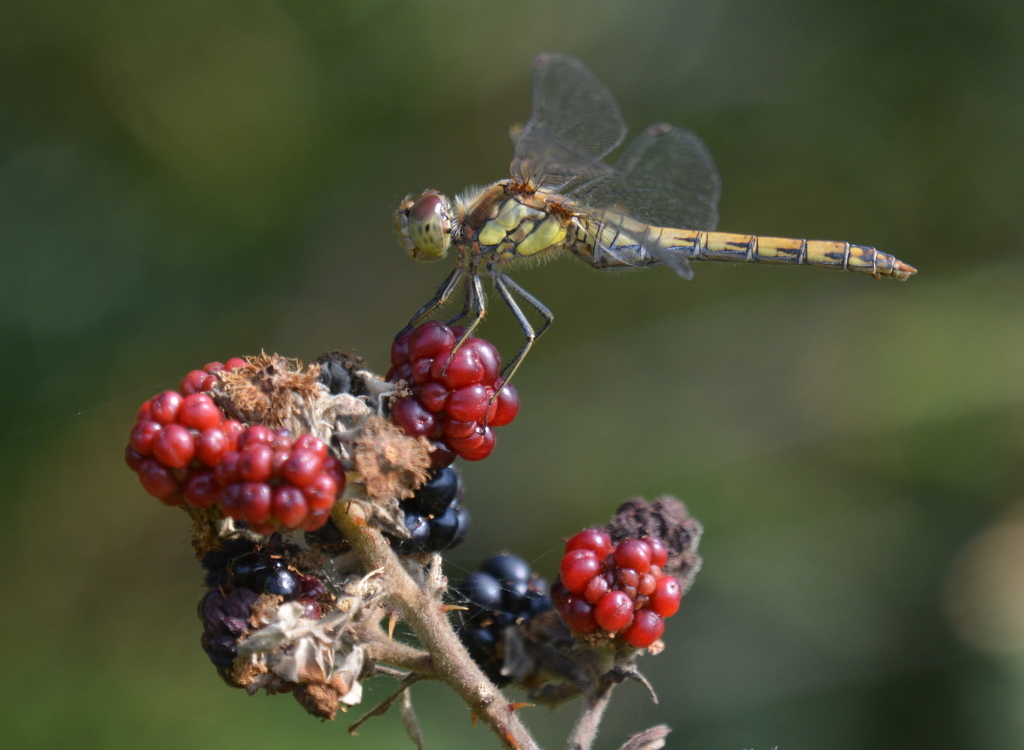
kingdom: Animalia
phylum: Arthropoda
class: Insecta
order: Odonata
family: Libellulidae
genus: Sympetrum
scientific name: Sympetrum striolatum
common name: Common darter
